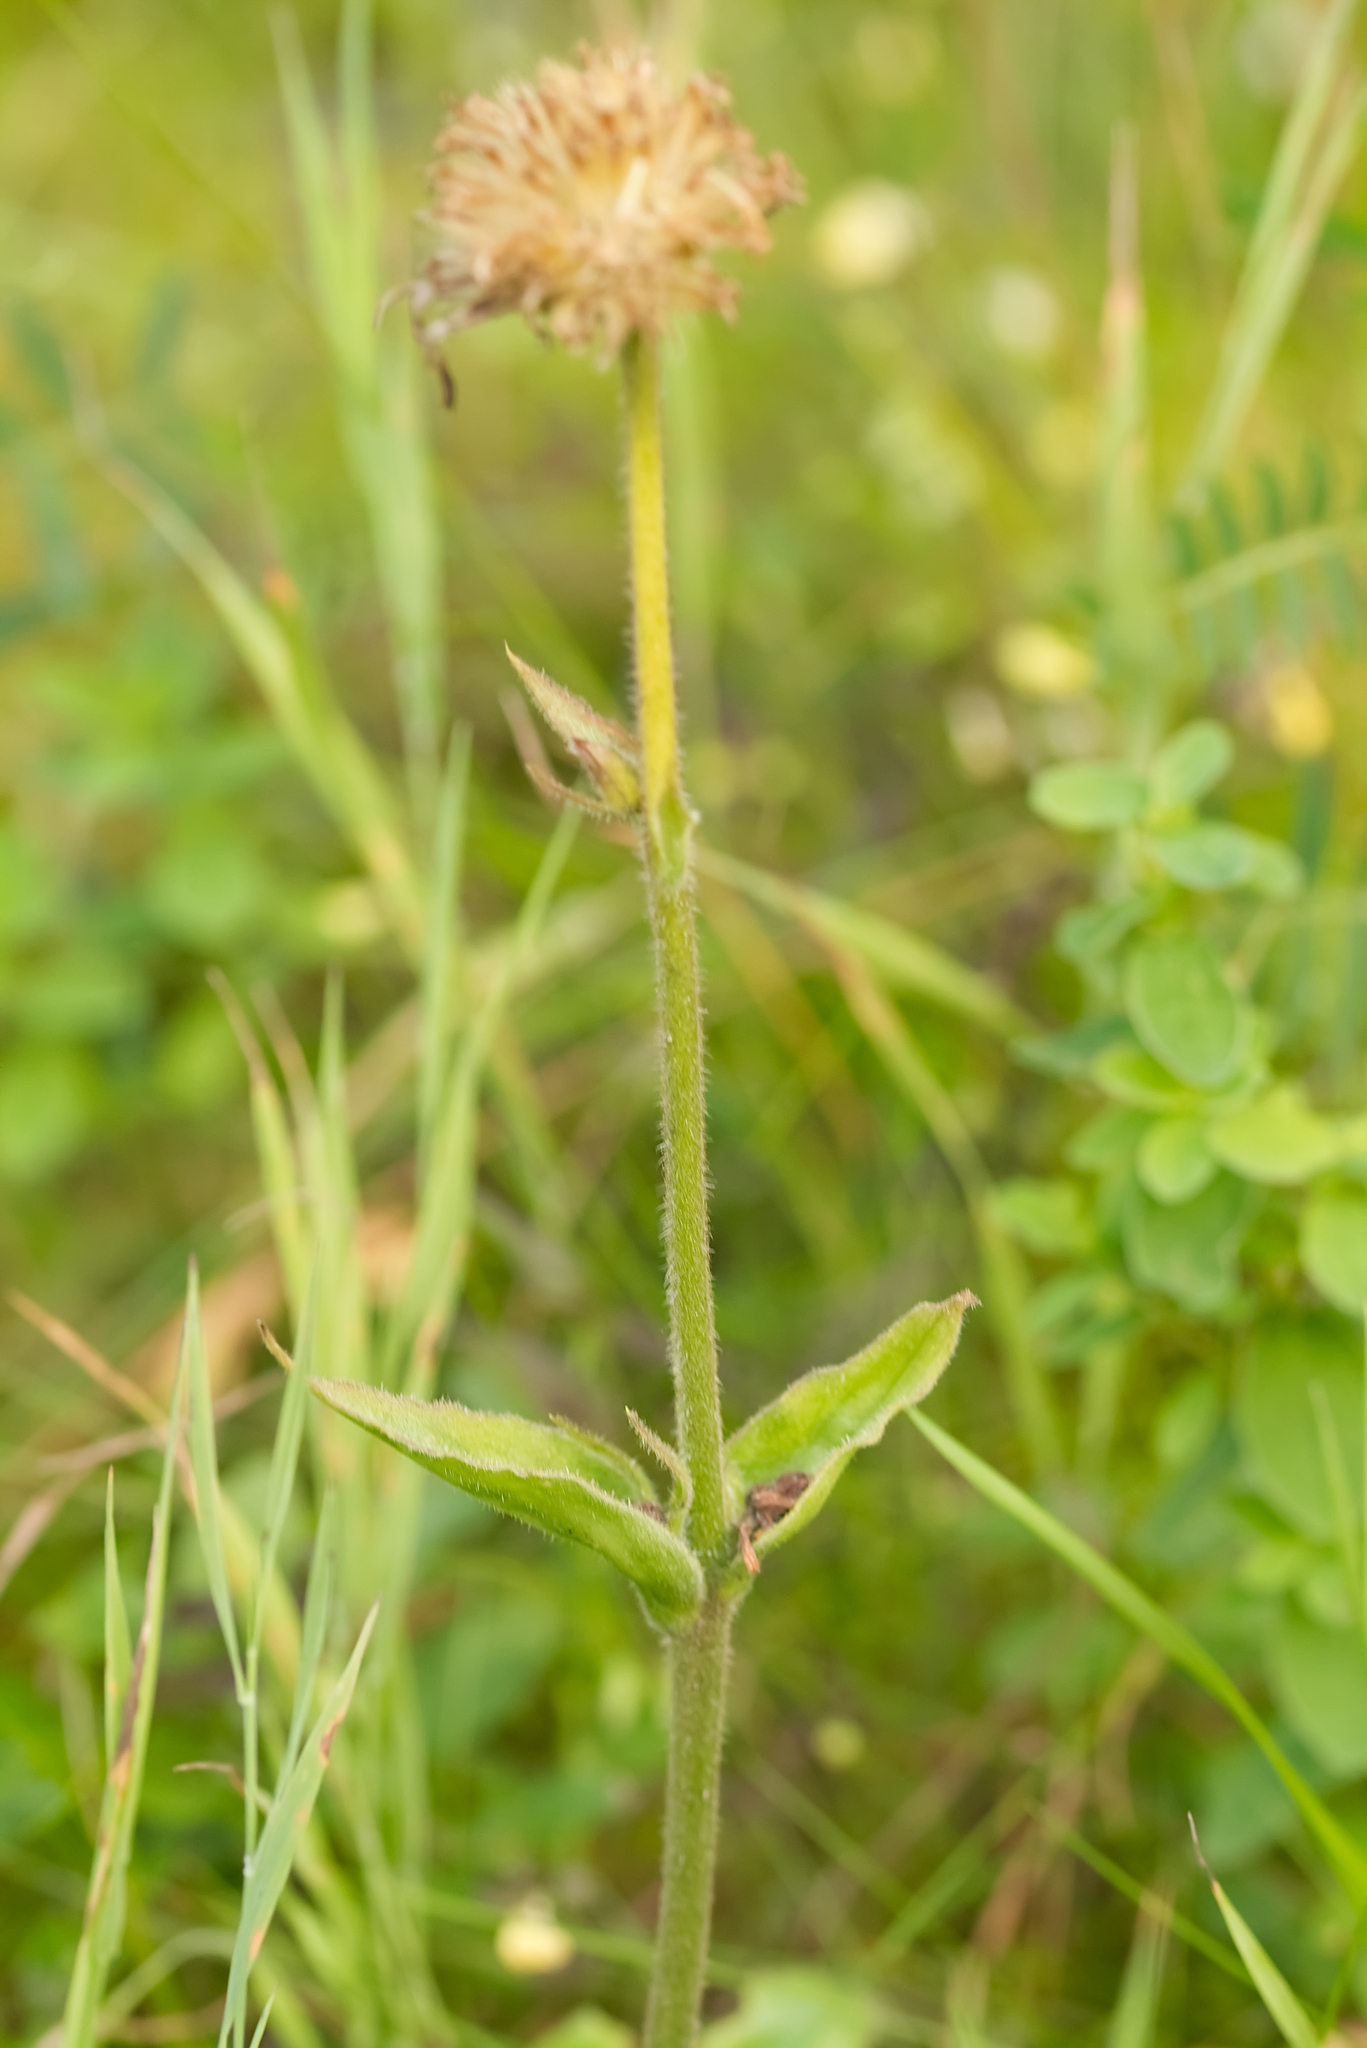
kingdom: Plantae
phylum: Tracheophyta
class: Magnoliopsida
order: Asterales
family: Asteraceae
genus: Arnica
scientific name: Arnica montana
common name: Leopard's bane
